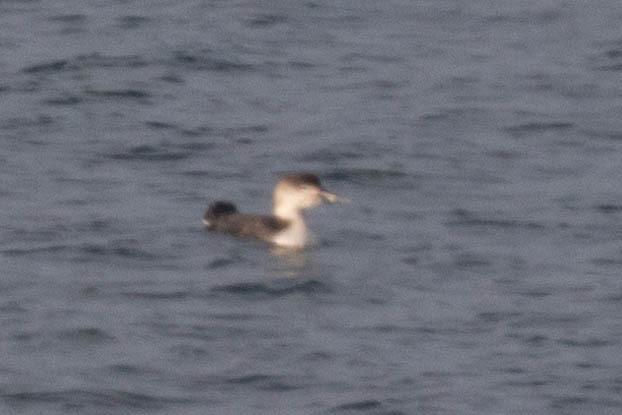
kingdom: Animalia
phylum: Chordata
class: Aves
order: Gaviiformes
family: Gaviidae
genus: Gavia
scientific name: Gavia immer
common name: Common loon
